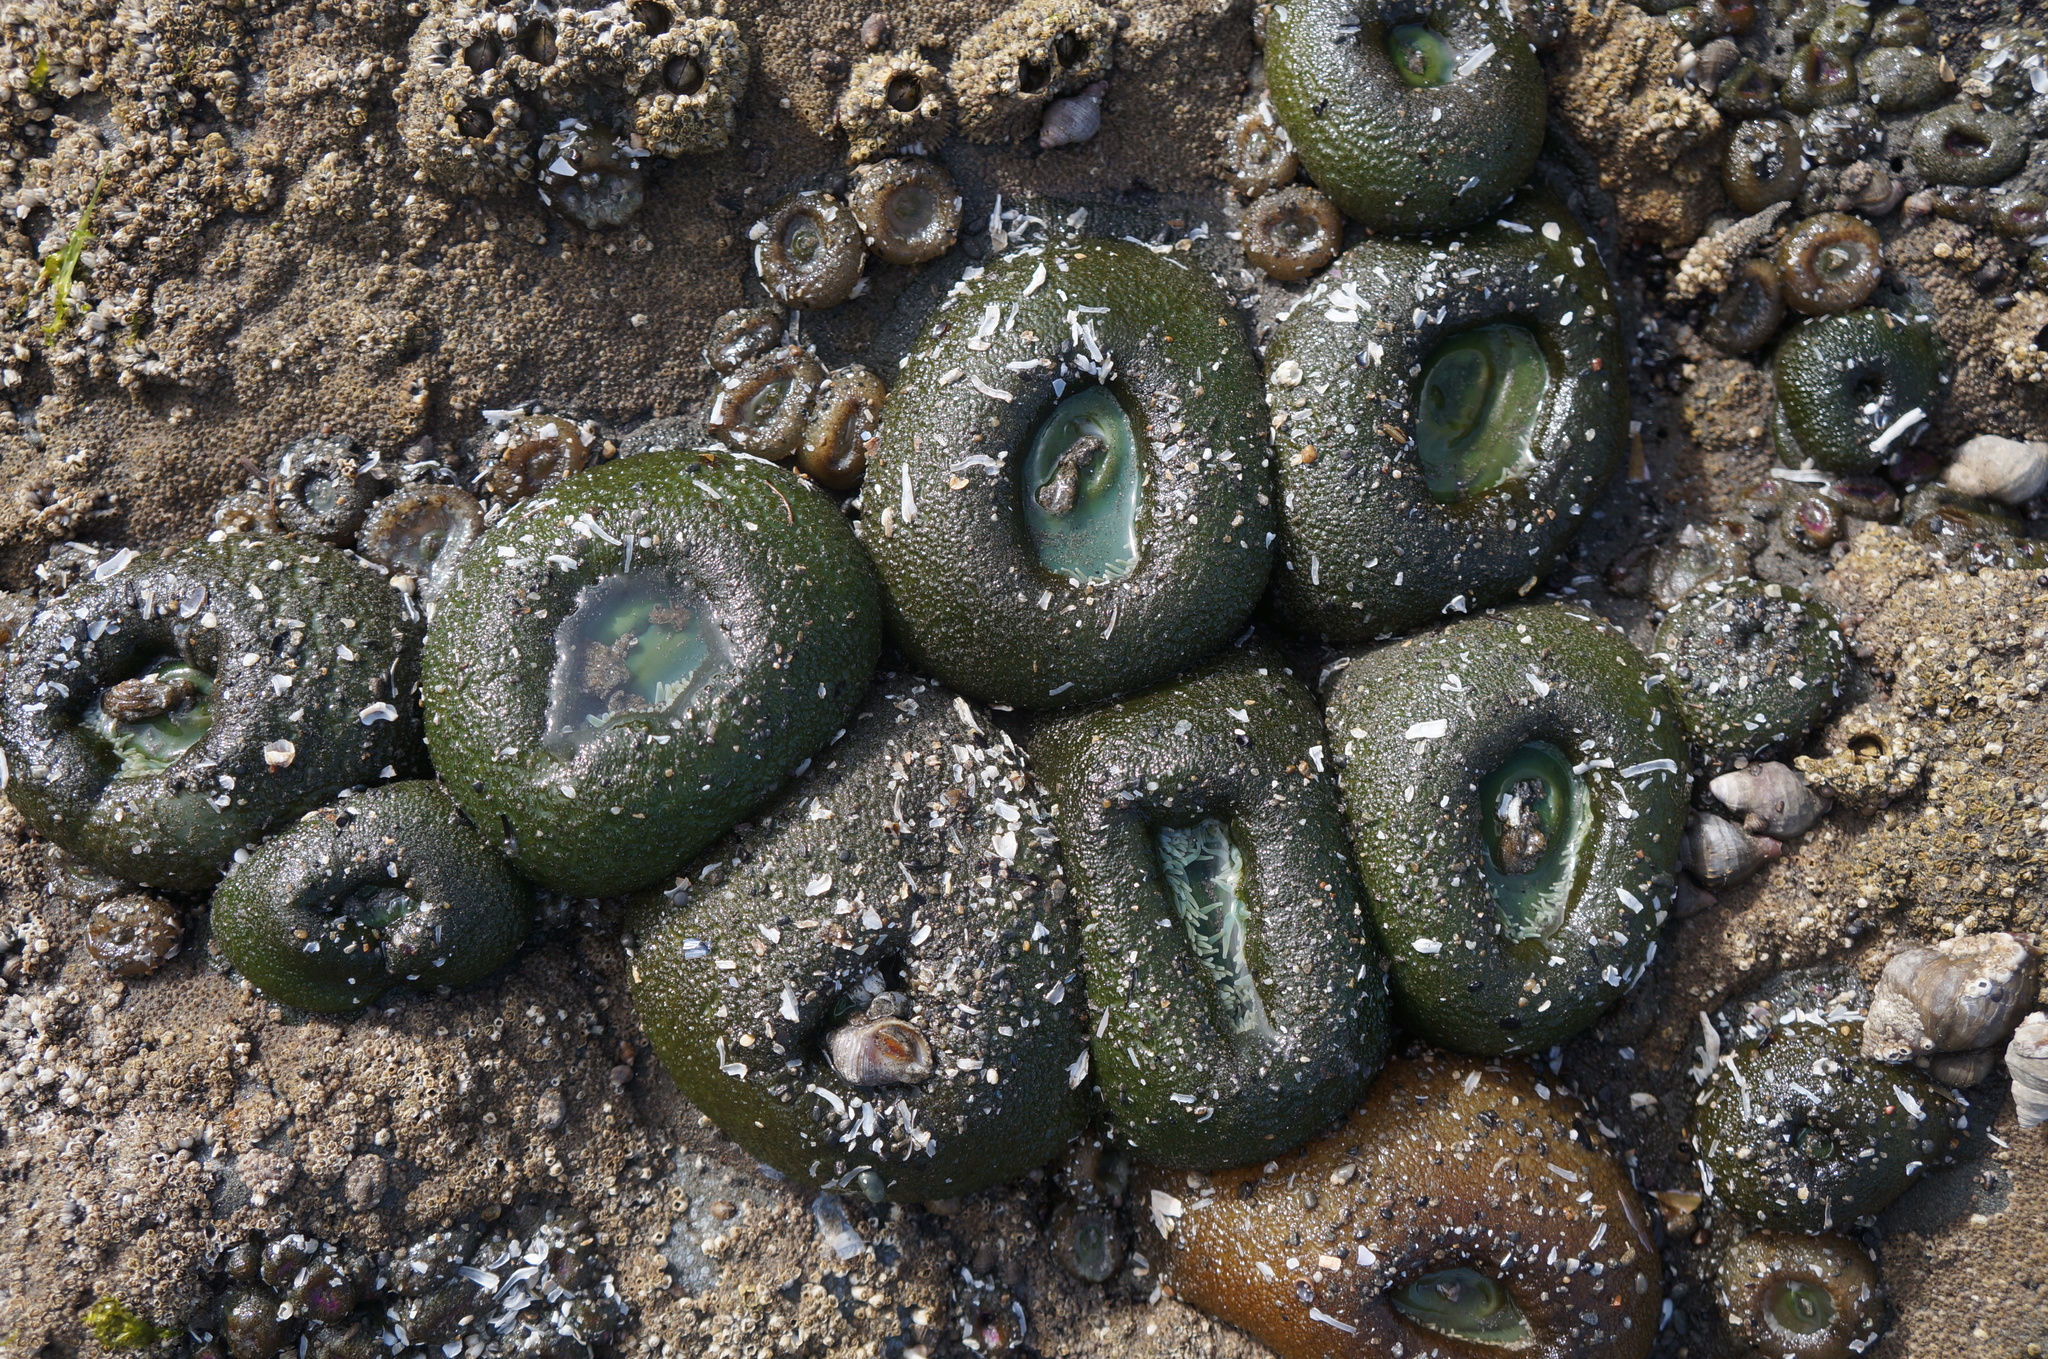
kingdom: Animalia
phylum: Cnidaria
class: Anthozoa
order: Actiniaria
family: Actiniidae
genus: Anthopleura
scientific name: Anthopleura xanthogrammica
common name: Giant green anemone
